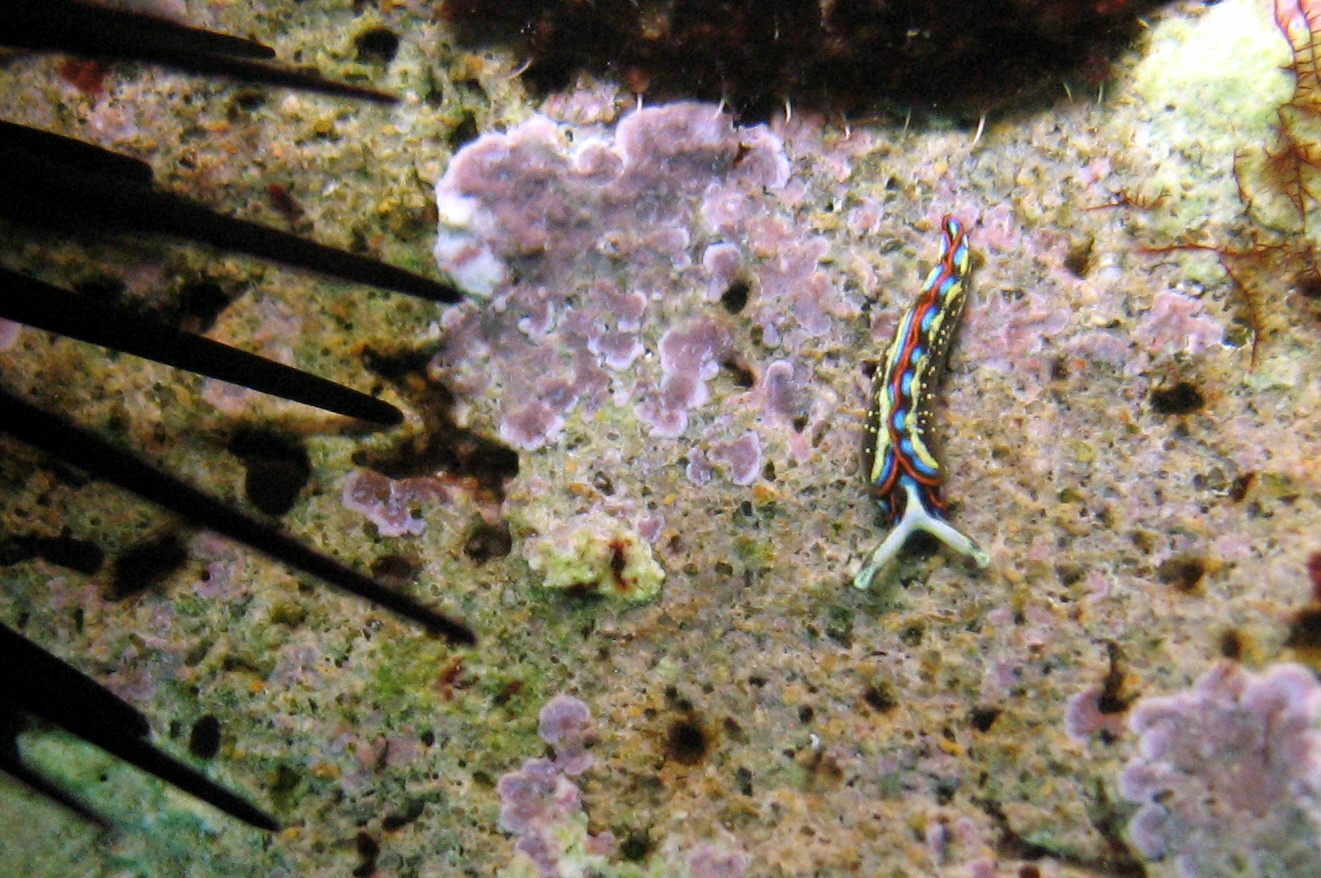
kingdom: Animalia
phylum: Mollusca
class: Gastropoda
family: Plakobranchidae
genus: Thuridilla
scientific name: Thuridilla hopei
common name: Splendid elysia
